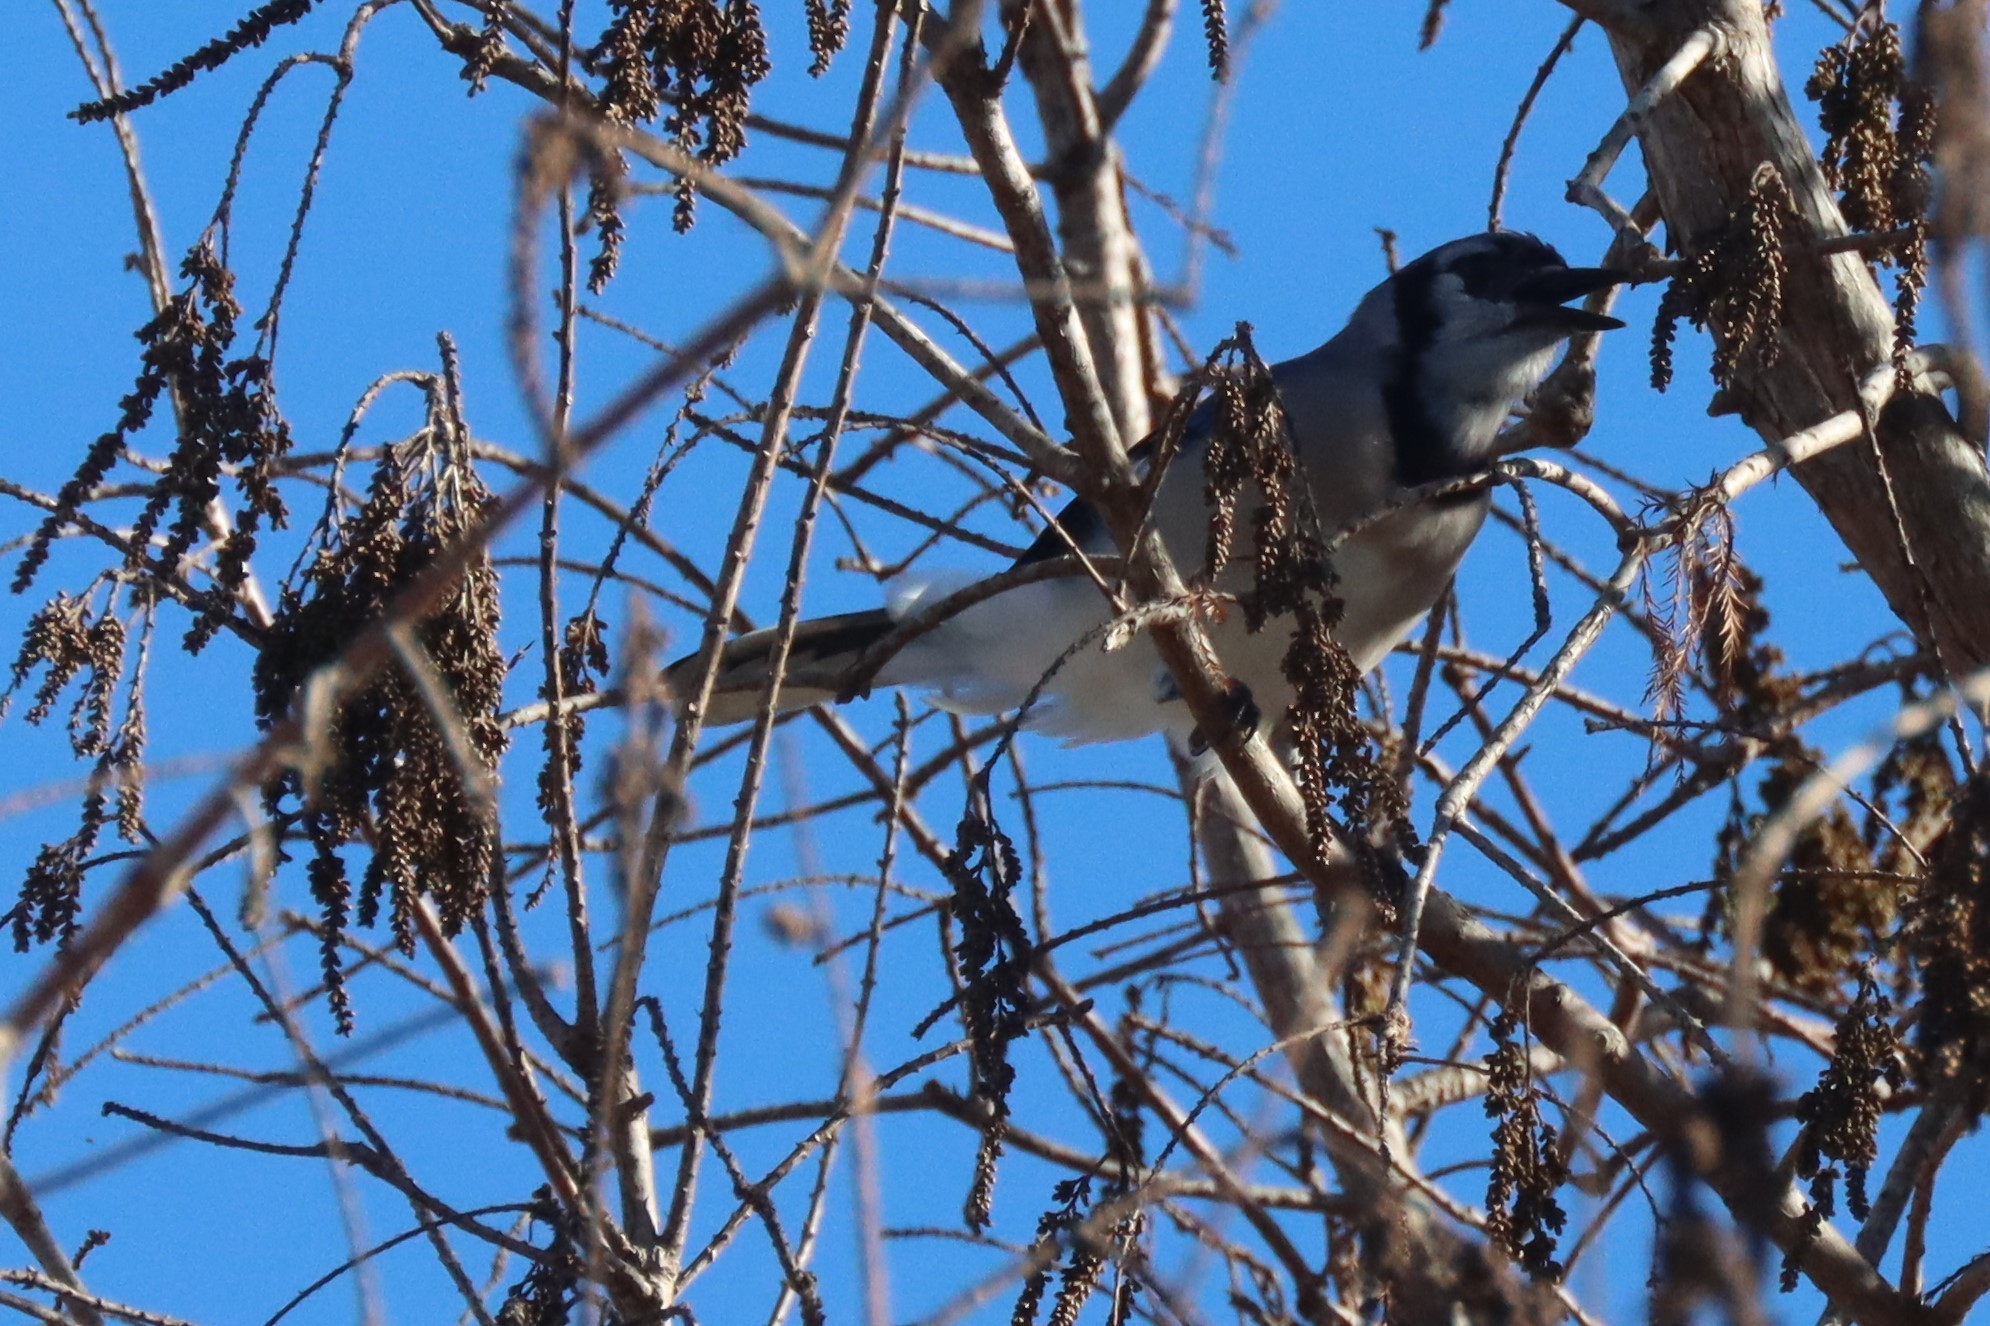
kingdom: Animalia
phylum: Chordata
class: Aves
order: Passeriformes
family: Corvidae
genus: Cyanocitta
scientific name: Cyanocitta cristata
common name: Blue jay
